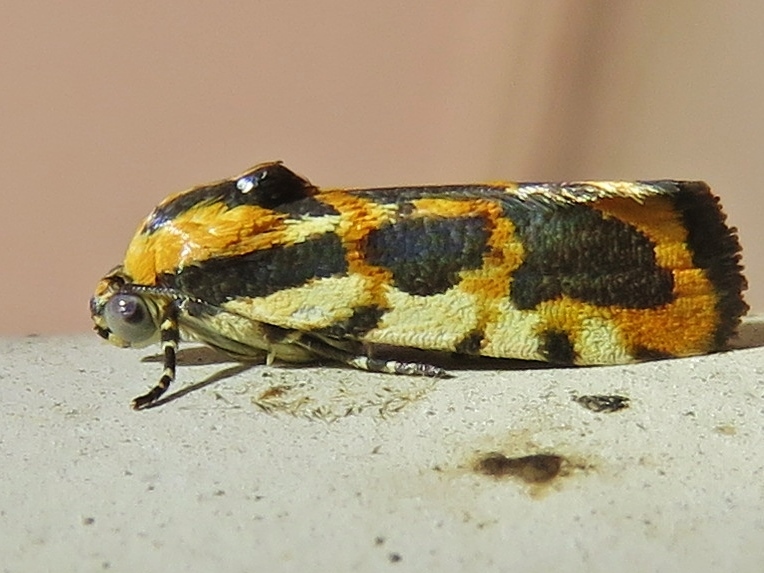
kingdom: Animalia
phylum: Arthropoda
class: Insecta
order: Lepidoptera
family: Noctuidae
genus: Acontia
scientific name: Acontia leo
